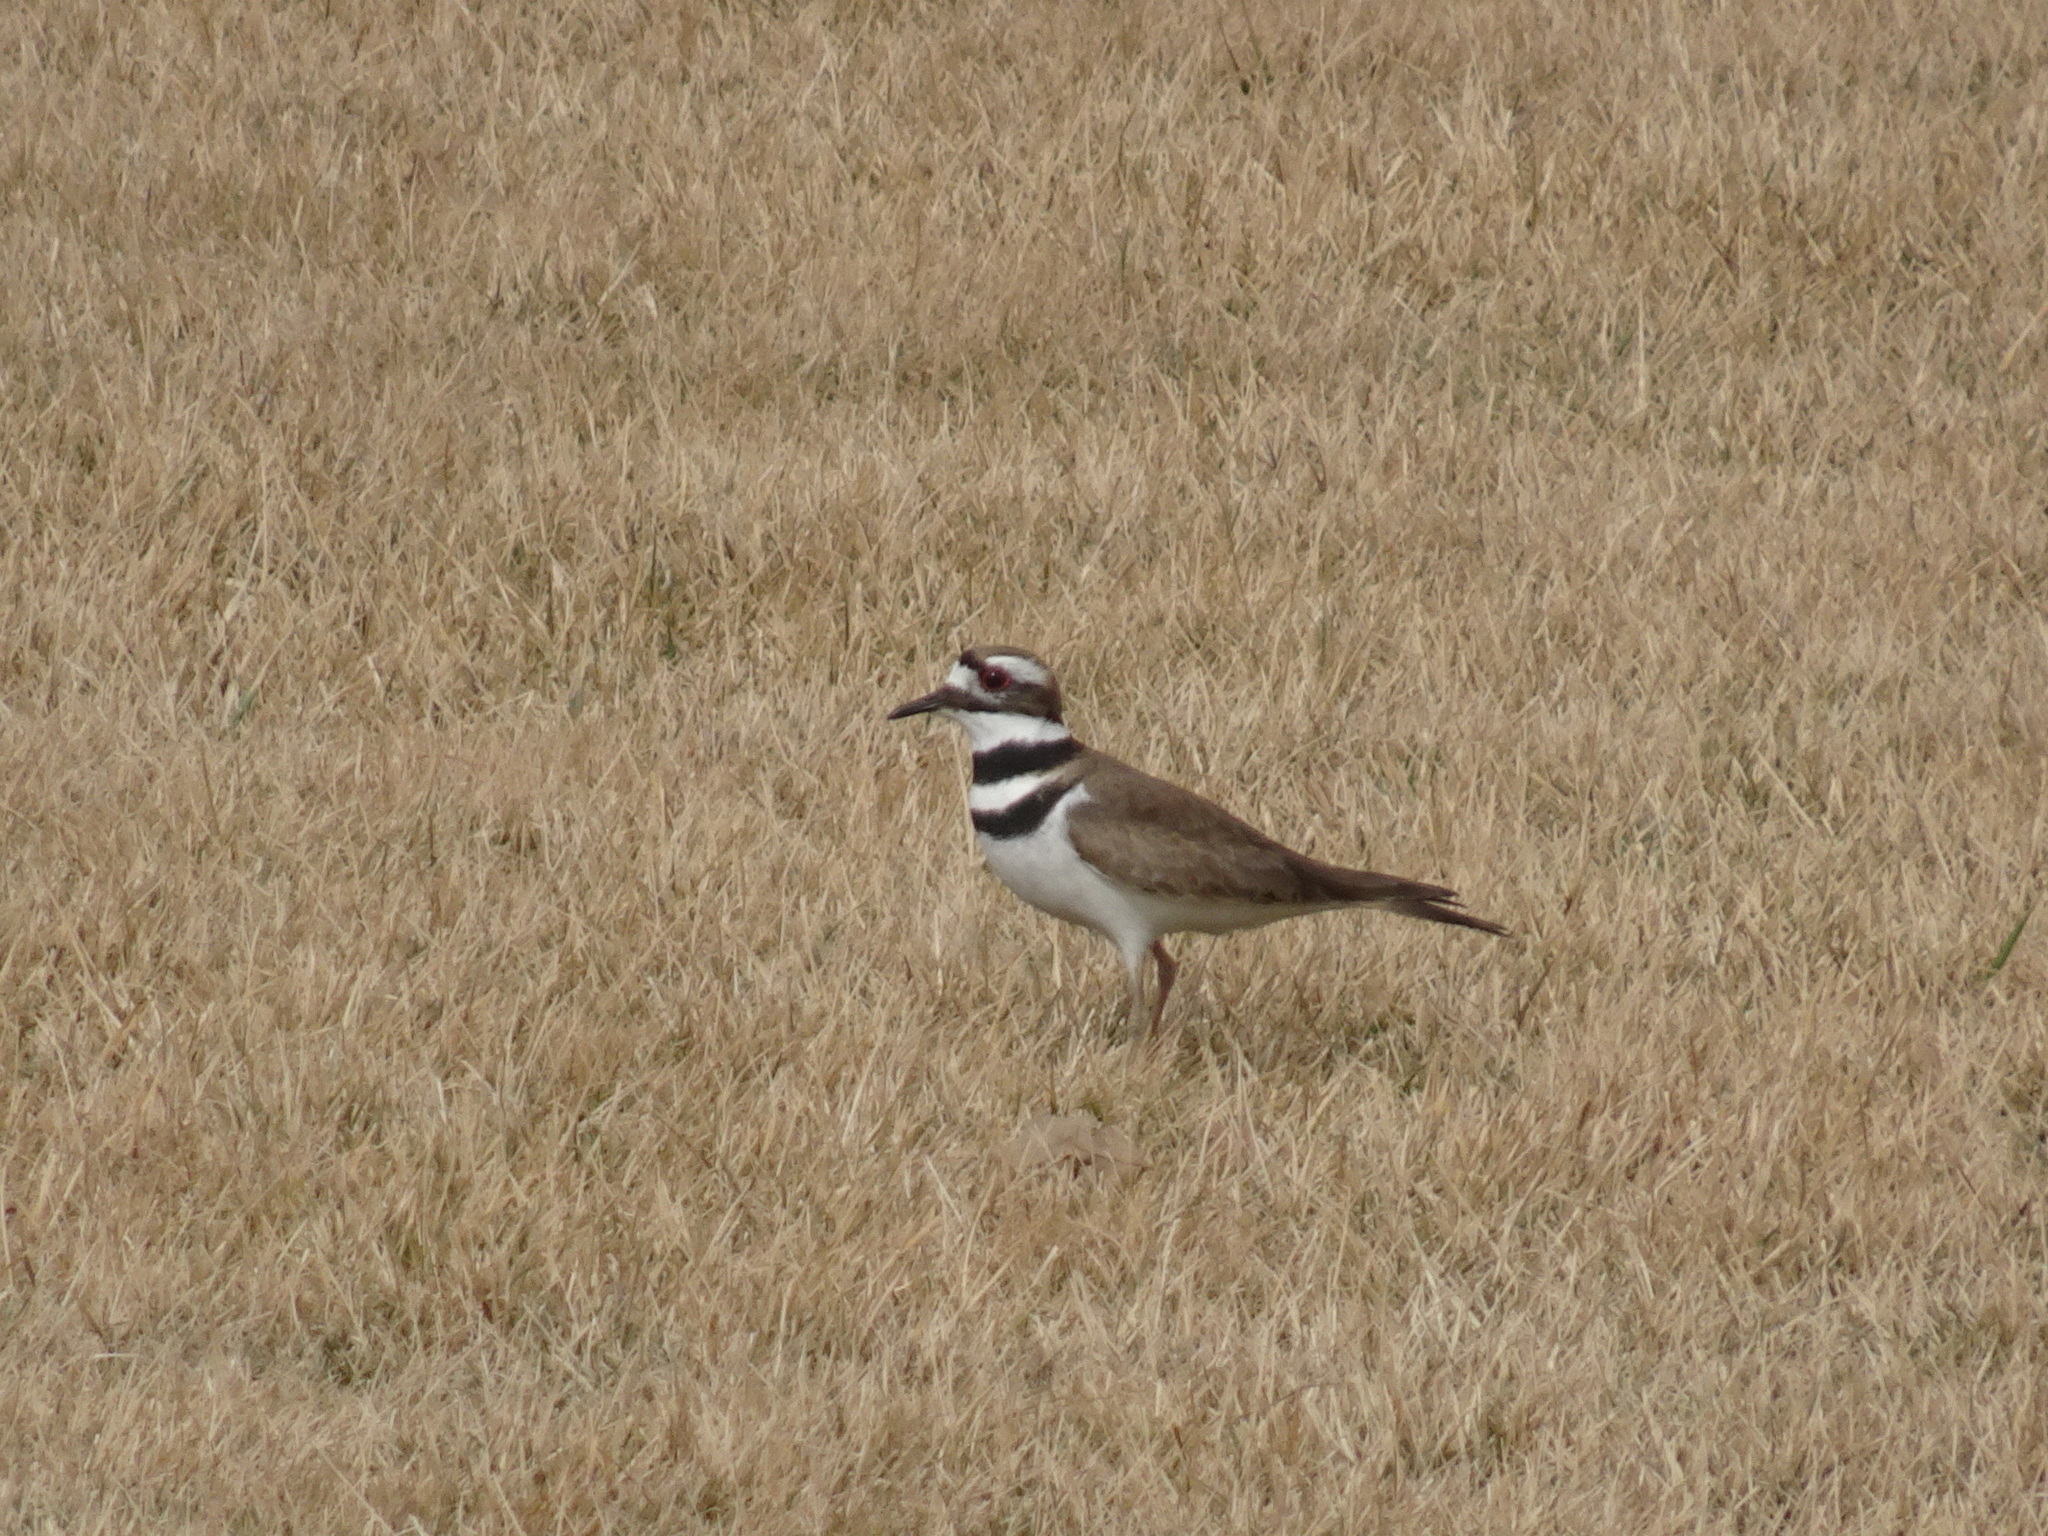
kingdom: Animalia
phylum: Chordata
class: Aves
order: Charadriiformes
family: Charadriidae
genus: Charadrius
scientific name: Charadrius vociferus
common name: Killdeer
